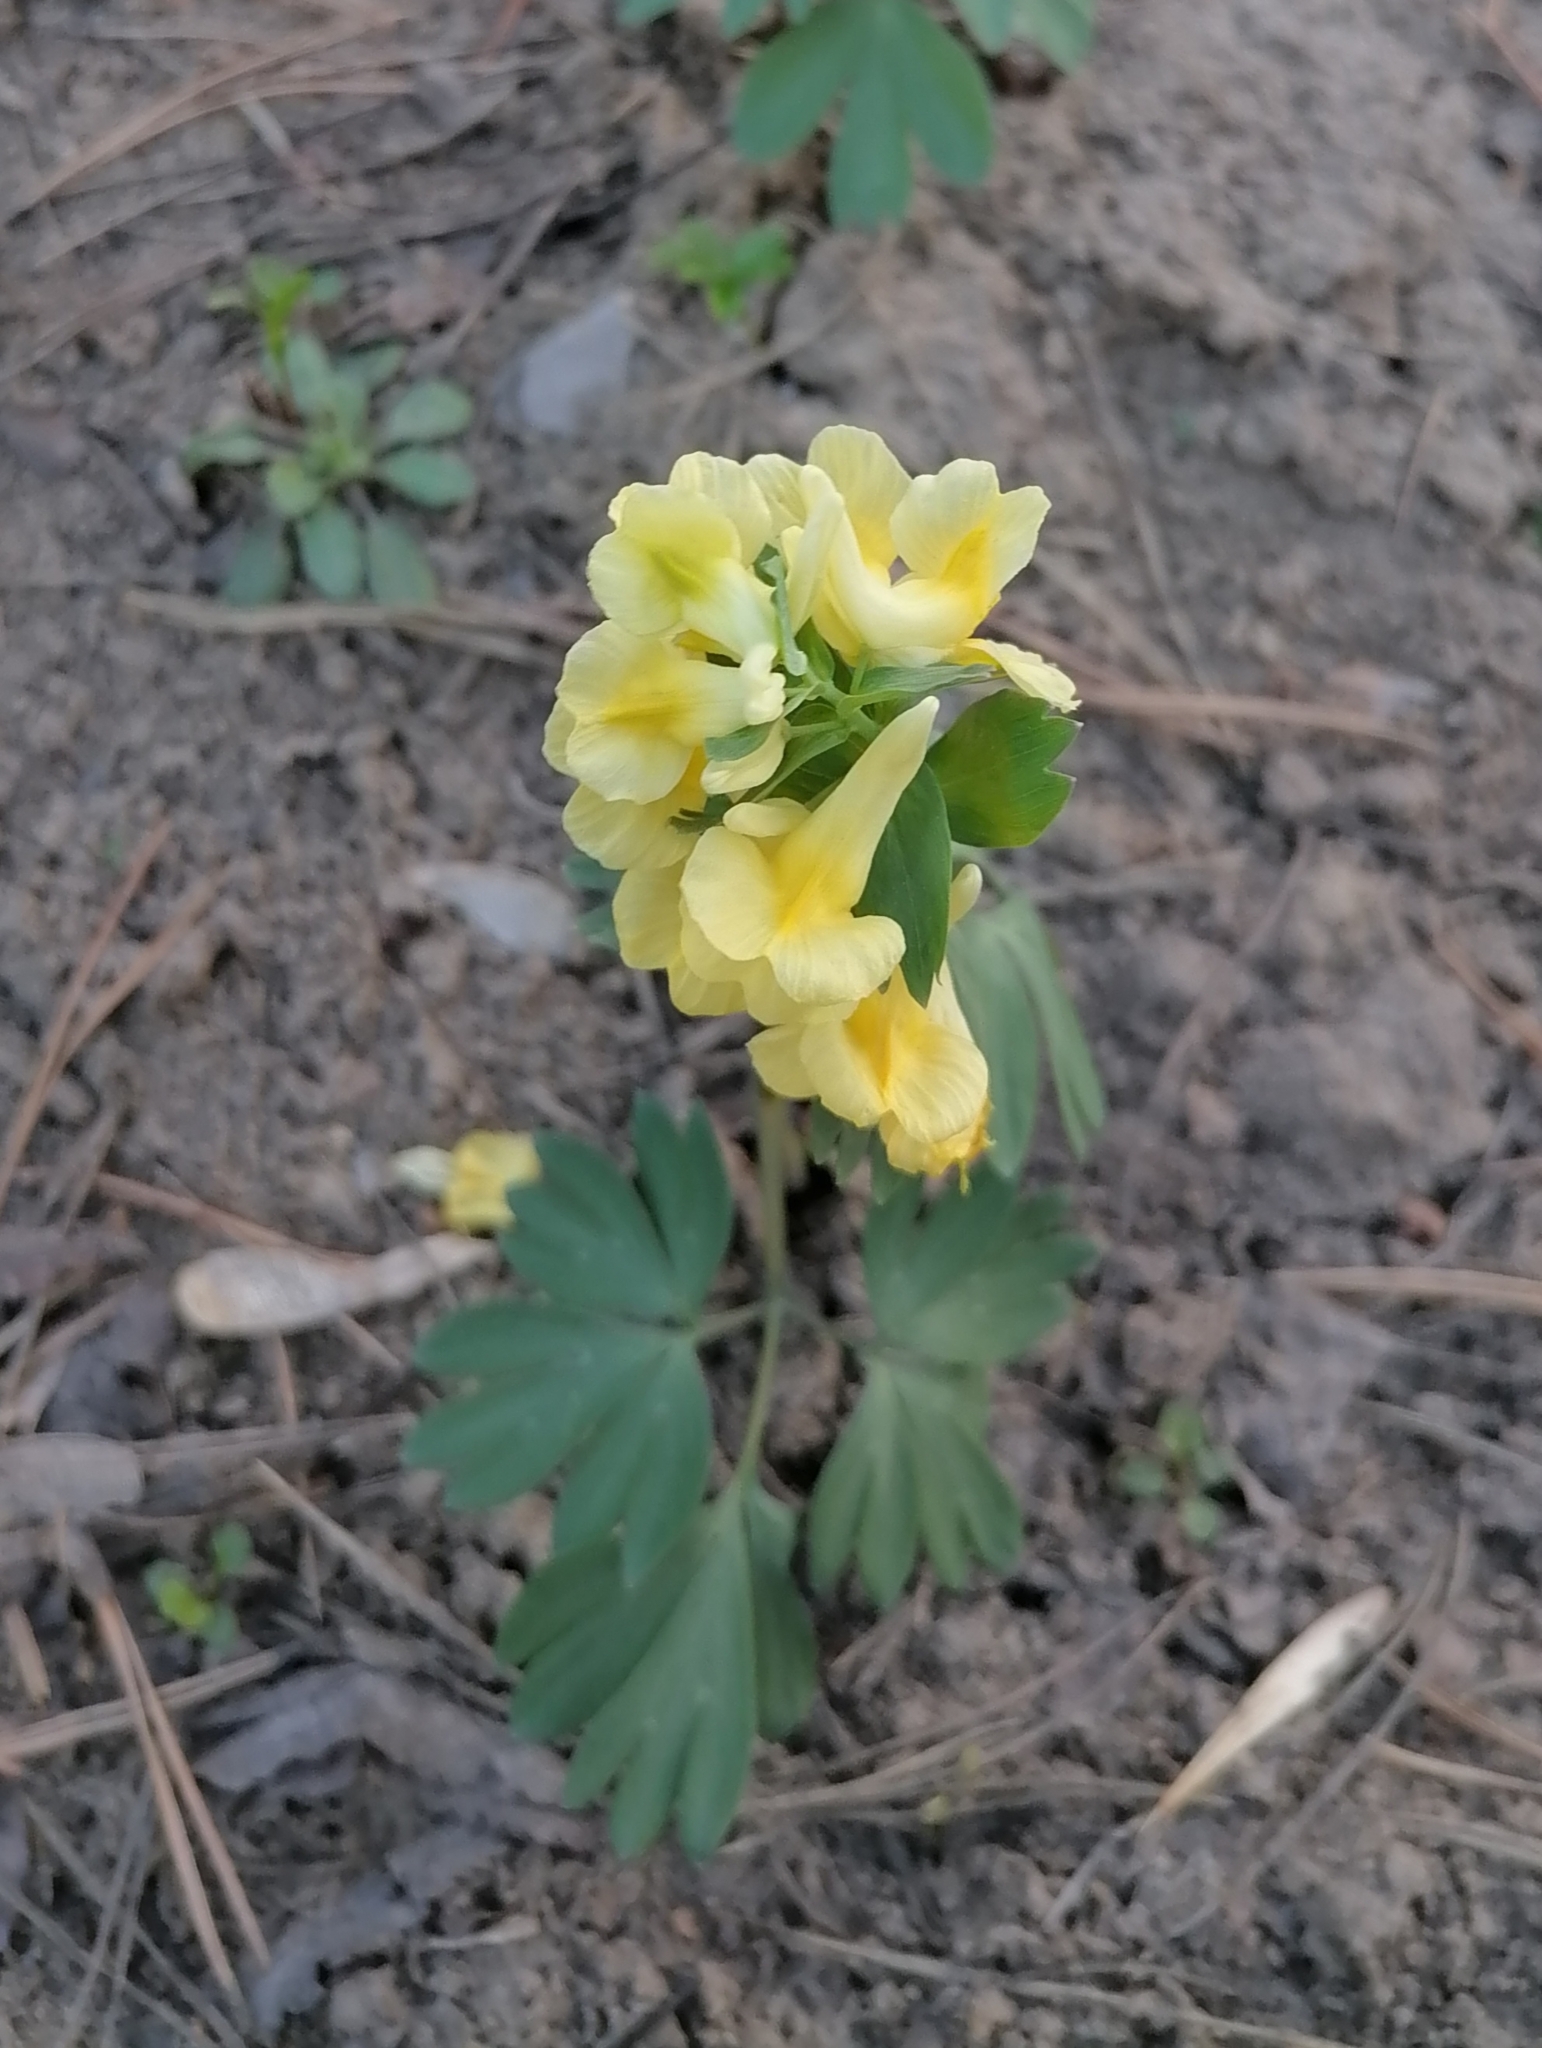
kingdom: Plantae
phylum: Tracheophyta
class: Magnoliopsida
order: Ranunculales
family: Papaveraceae
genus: Corydalis
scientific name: Corydalis bracteata
